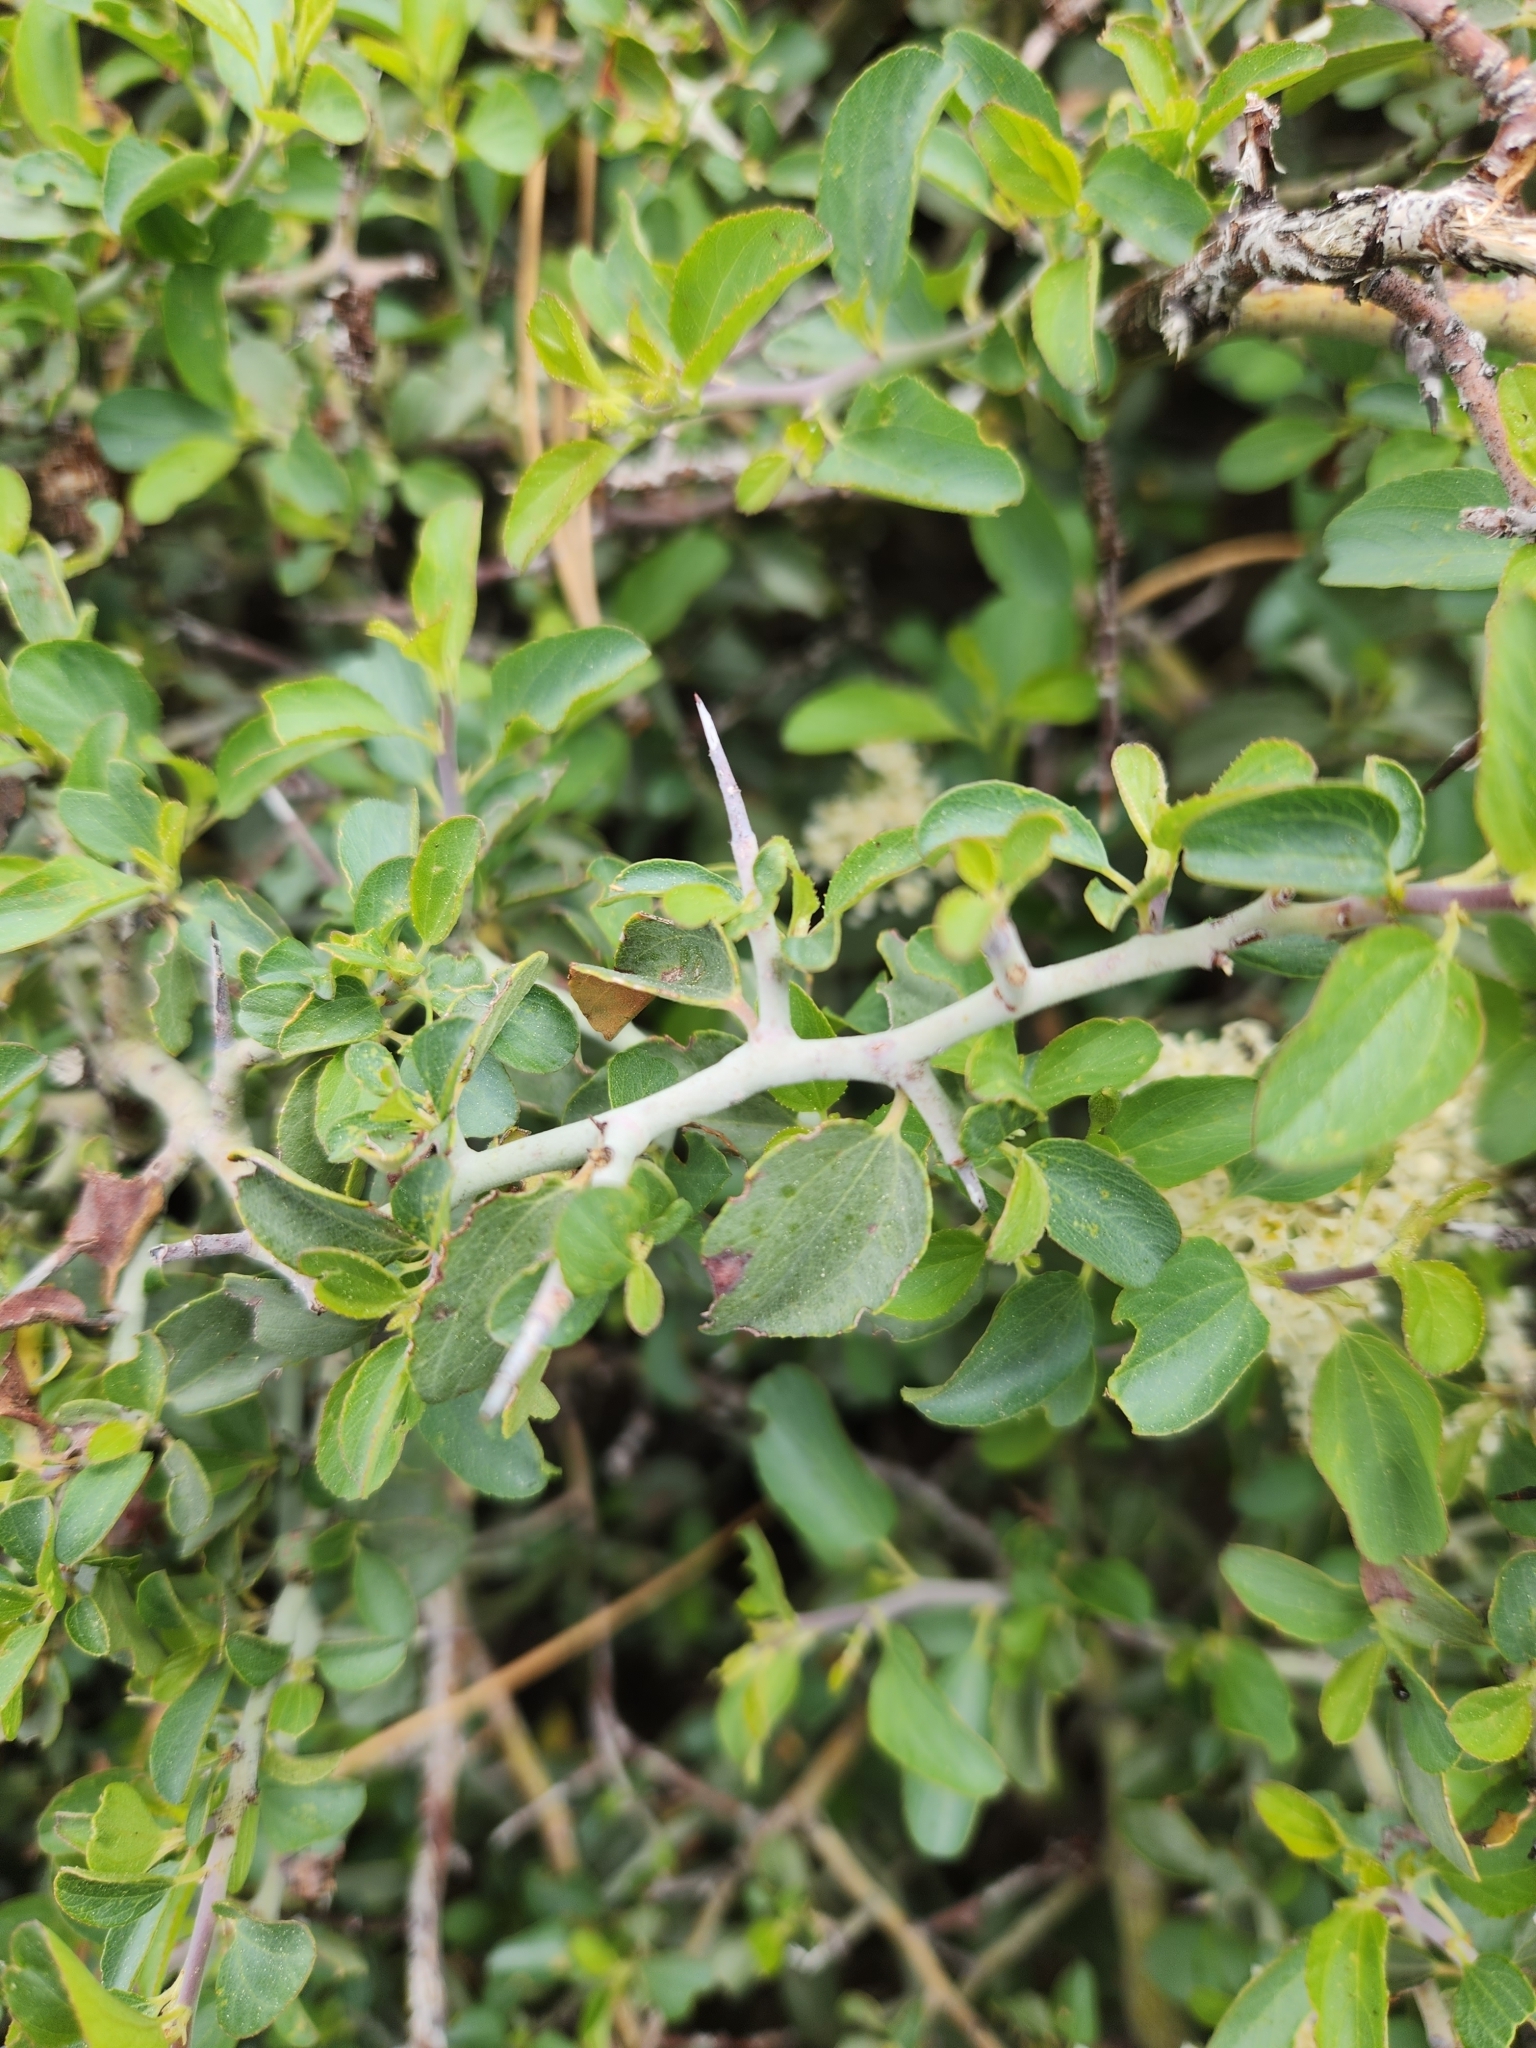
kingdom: Plantae
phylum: Tracheophyta
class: Magnoliopsida
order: Rosales
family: Rhamnaceae
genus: Ceanothus
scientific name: Ceanothus cordulatus
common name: Mountain whitethorn
